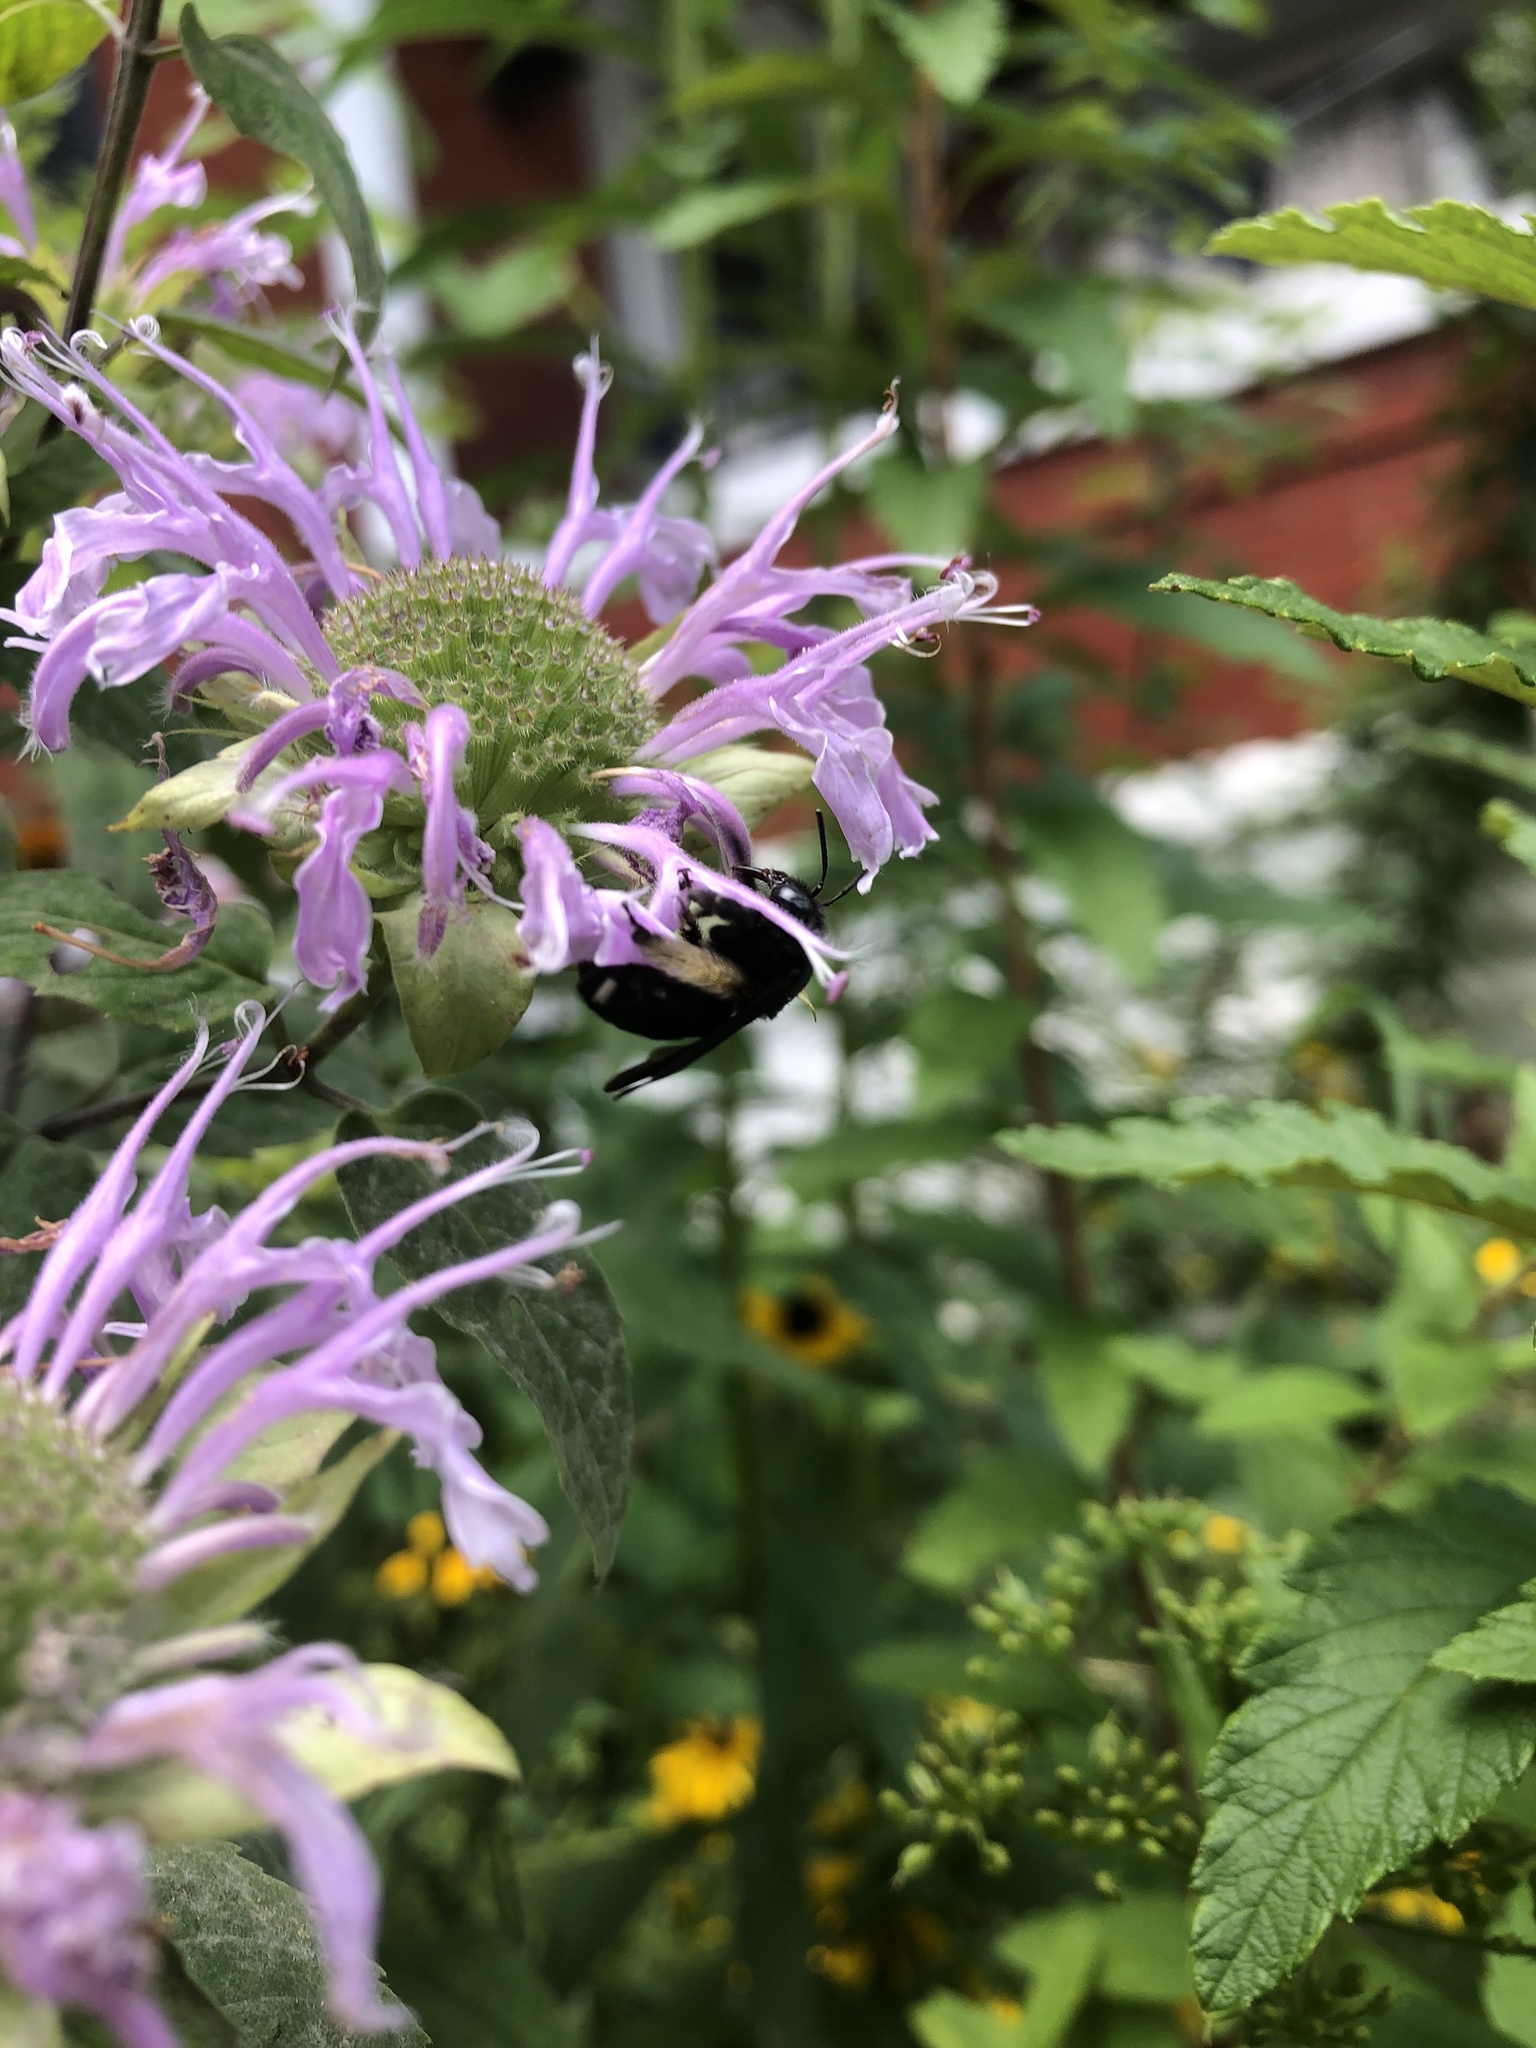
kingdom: Animalia
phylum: Arthropoda
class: Insecta
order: Hymenoptera
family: Apidae
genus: Melissodes
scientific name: Melissodes bimaculatus
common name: Two-spotted long-horned bee
